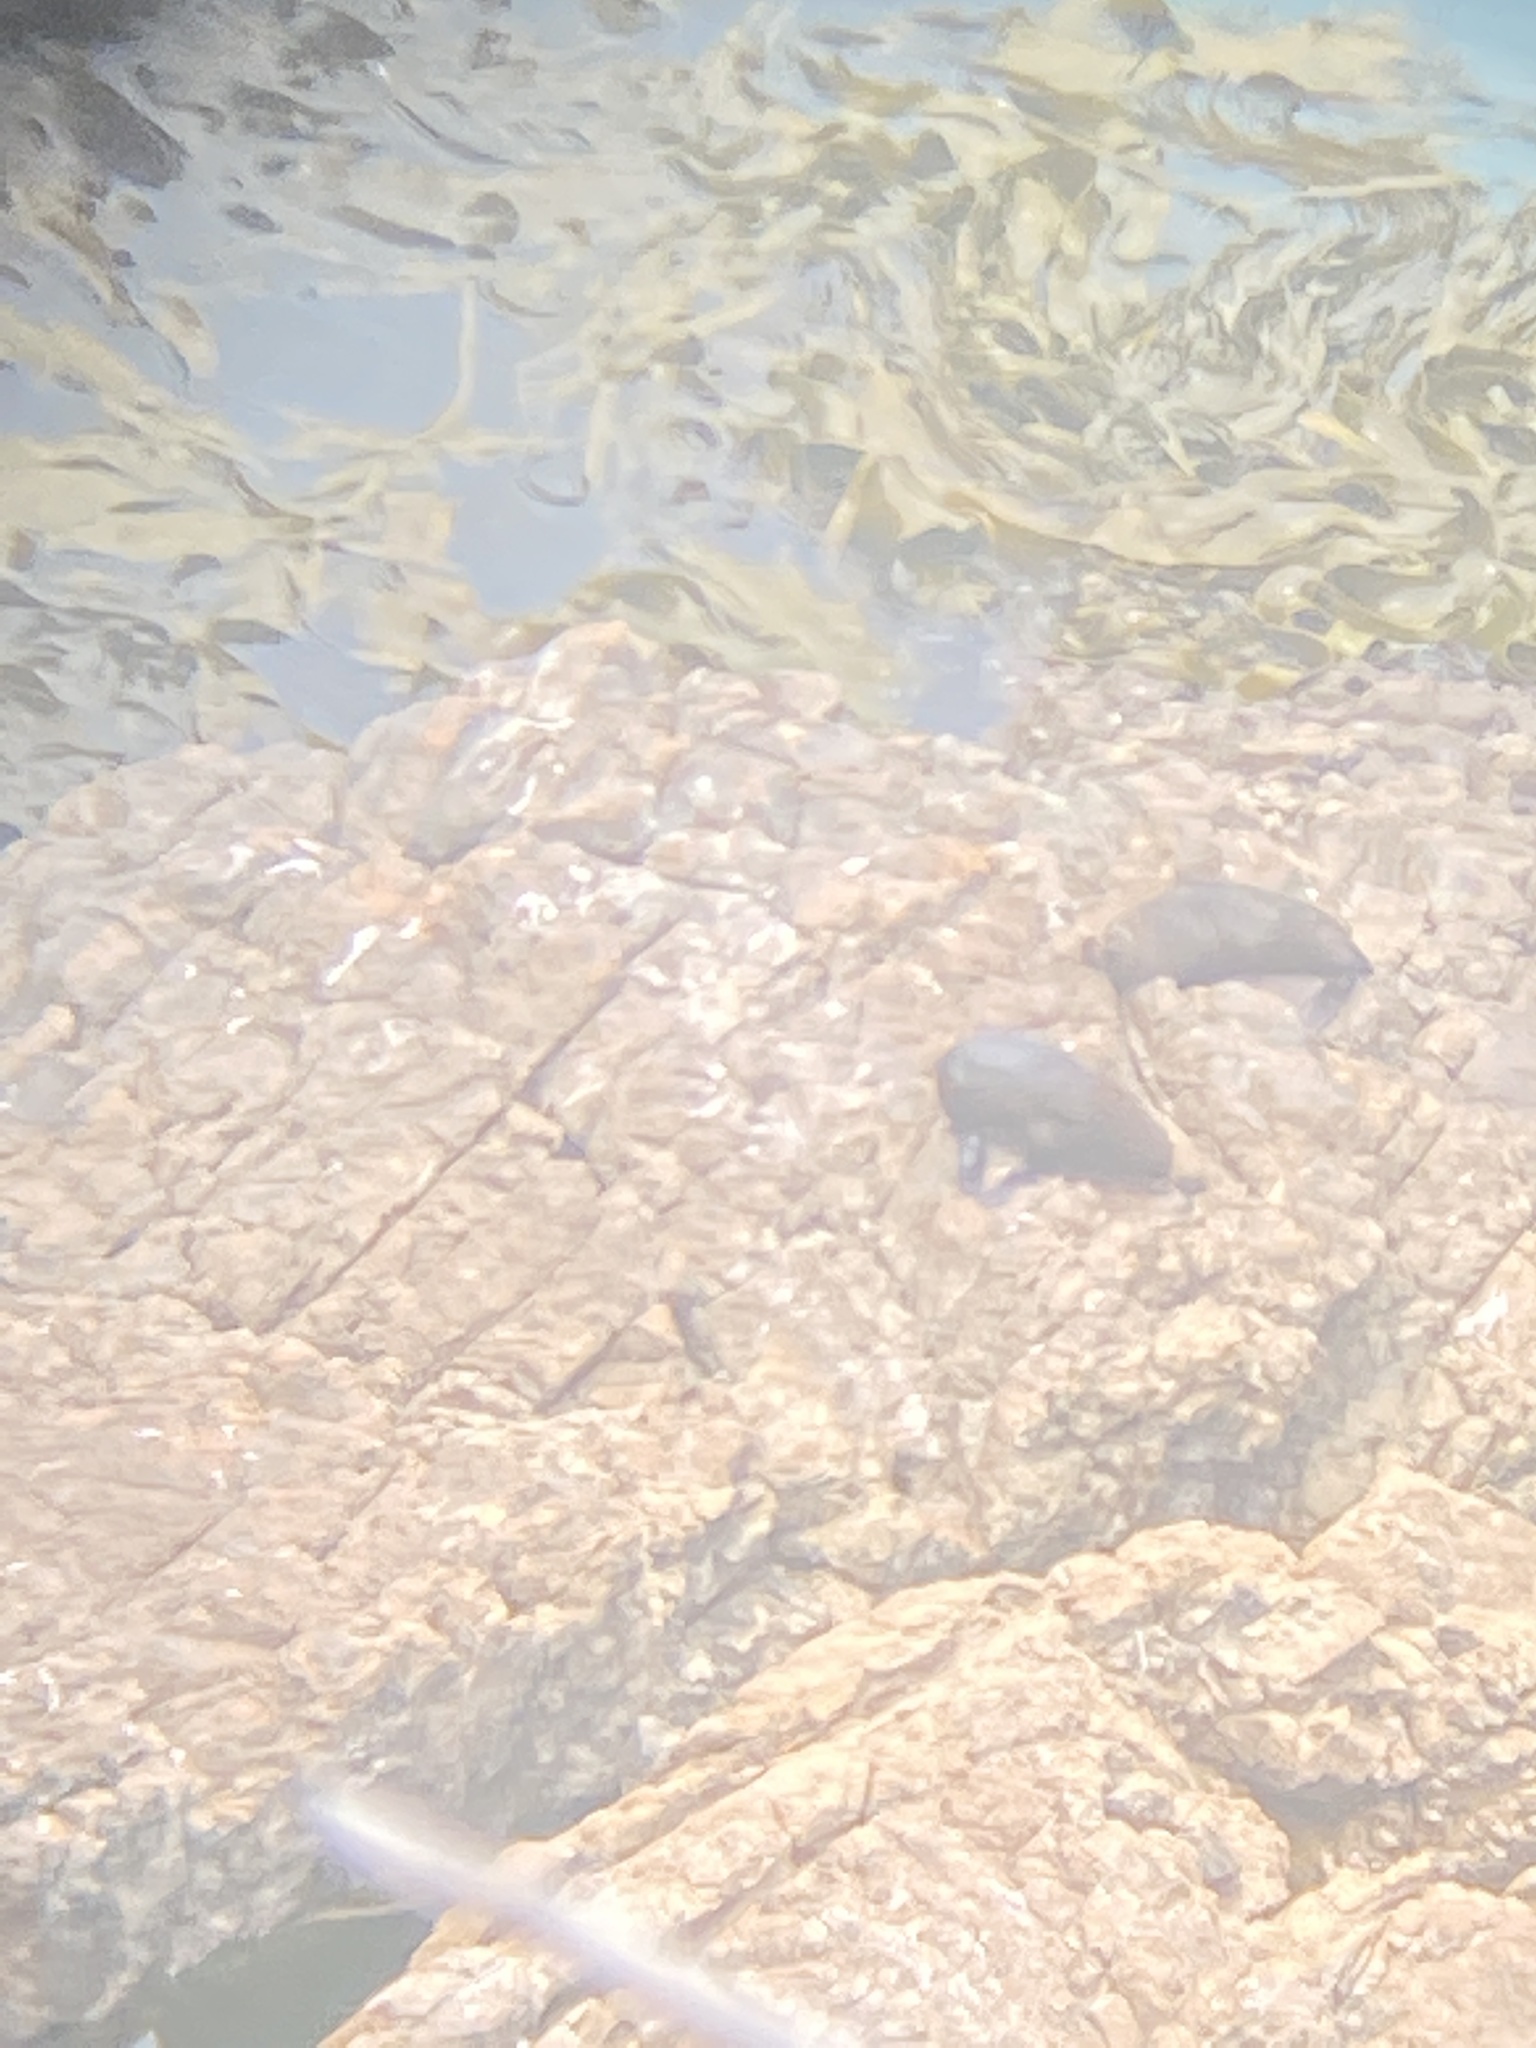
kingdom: Animalia
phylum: Chordata
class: Mammalia
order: Carnivora
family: Otariidae
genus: Arctocephalus
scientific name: Arctocephalus forsteri
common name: New zealand fur seal
